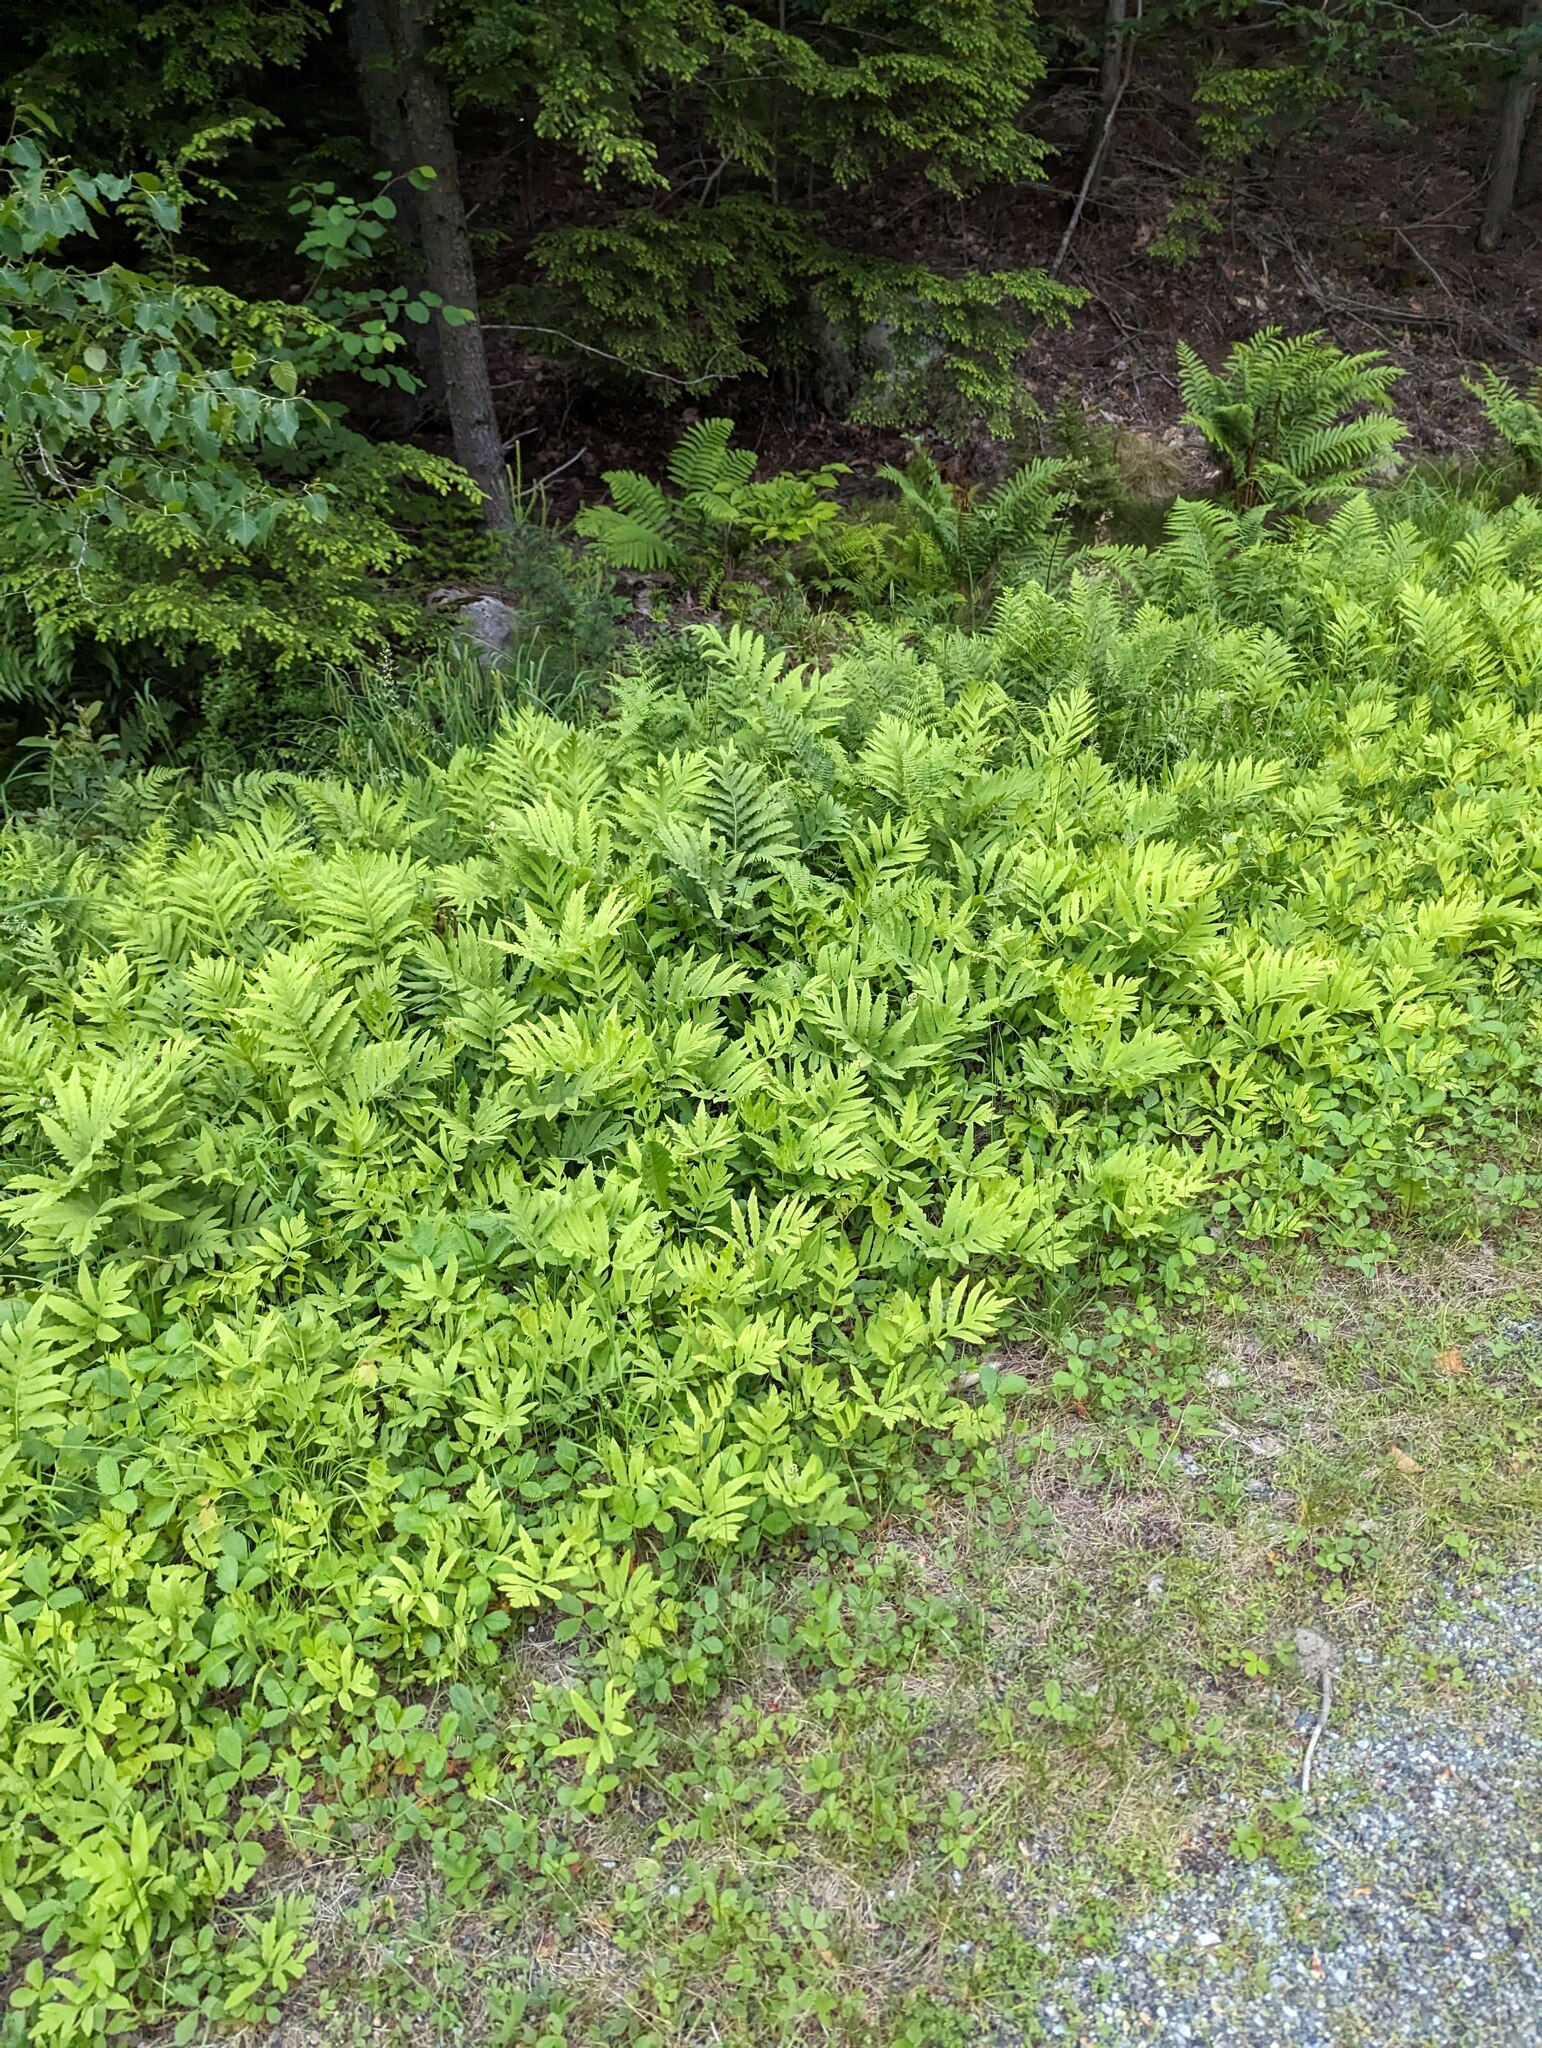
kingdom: Plantae
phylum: Tracheophyta
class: Polypodiopsida
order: Polypodiales
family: Onocleaceae
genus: Onoclea
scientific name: Onoclea sensibilis
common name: Sensitive fern
